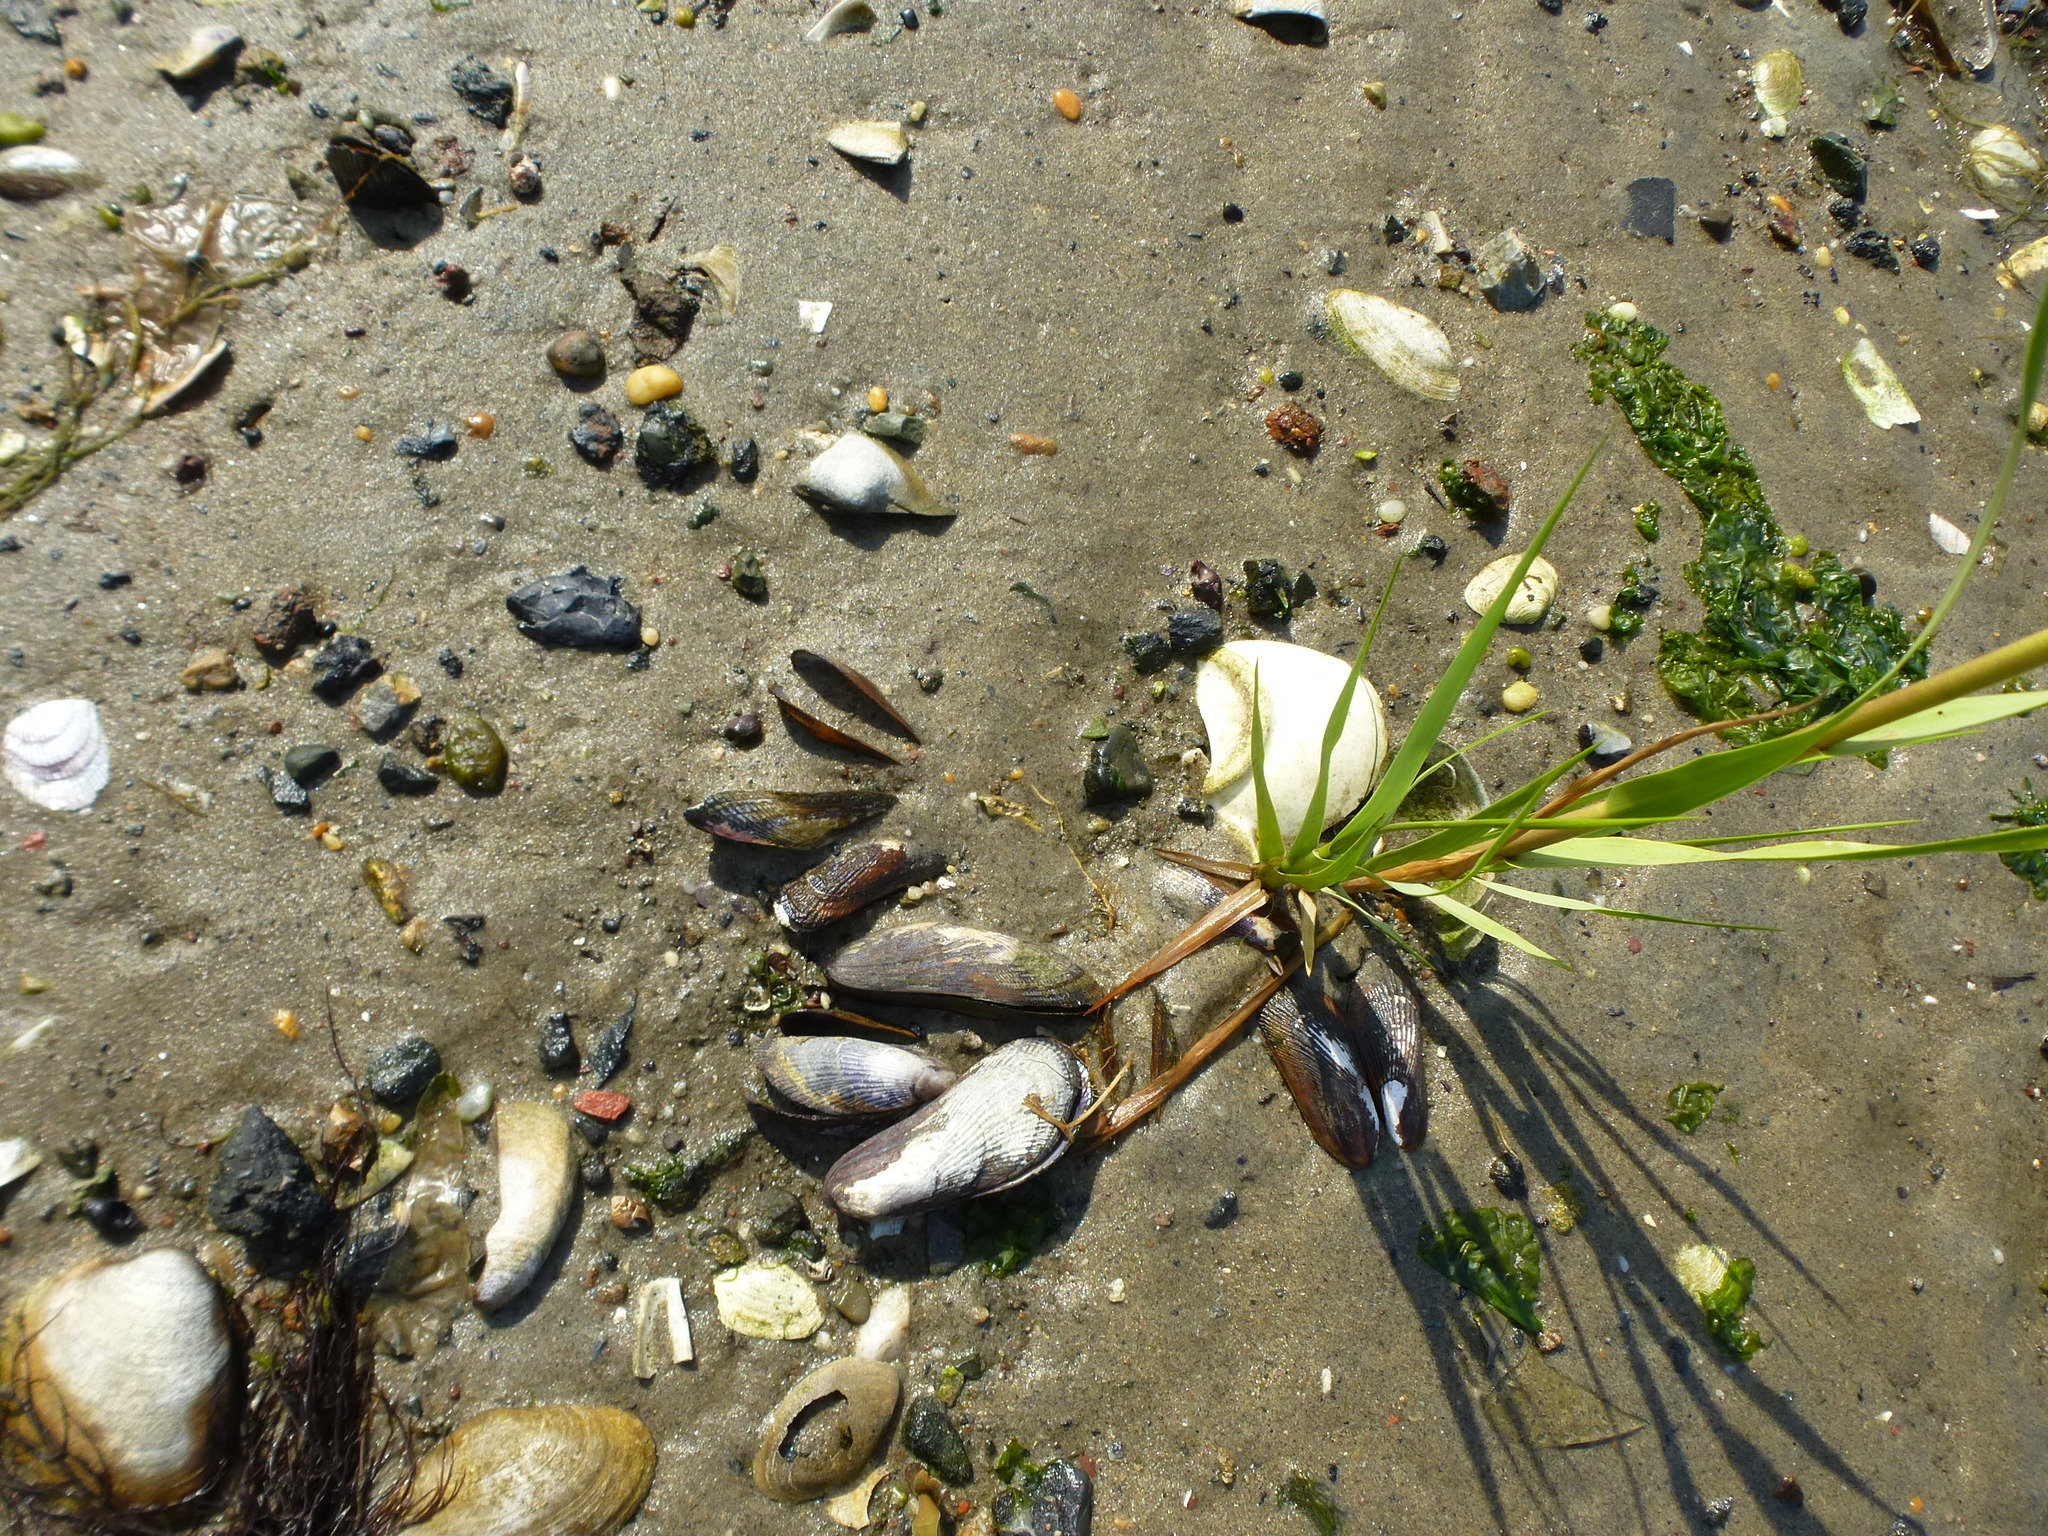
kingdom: Animalia
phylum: Mollusca
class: Bivalvia
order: Mytilida
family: Mytilidae
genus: Geukensia
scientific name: Geukensia demissa
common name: Ribbed mussel
